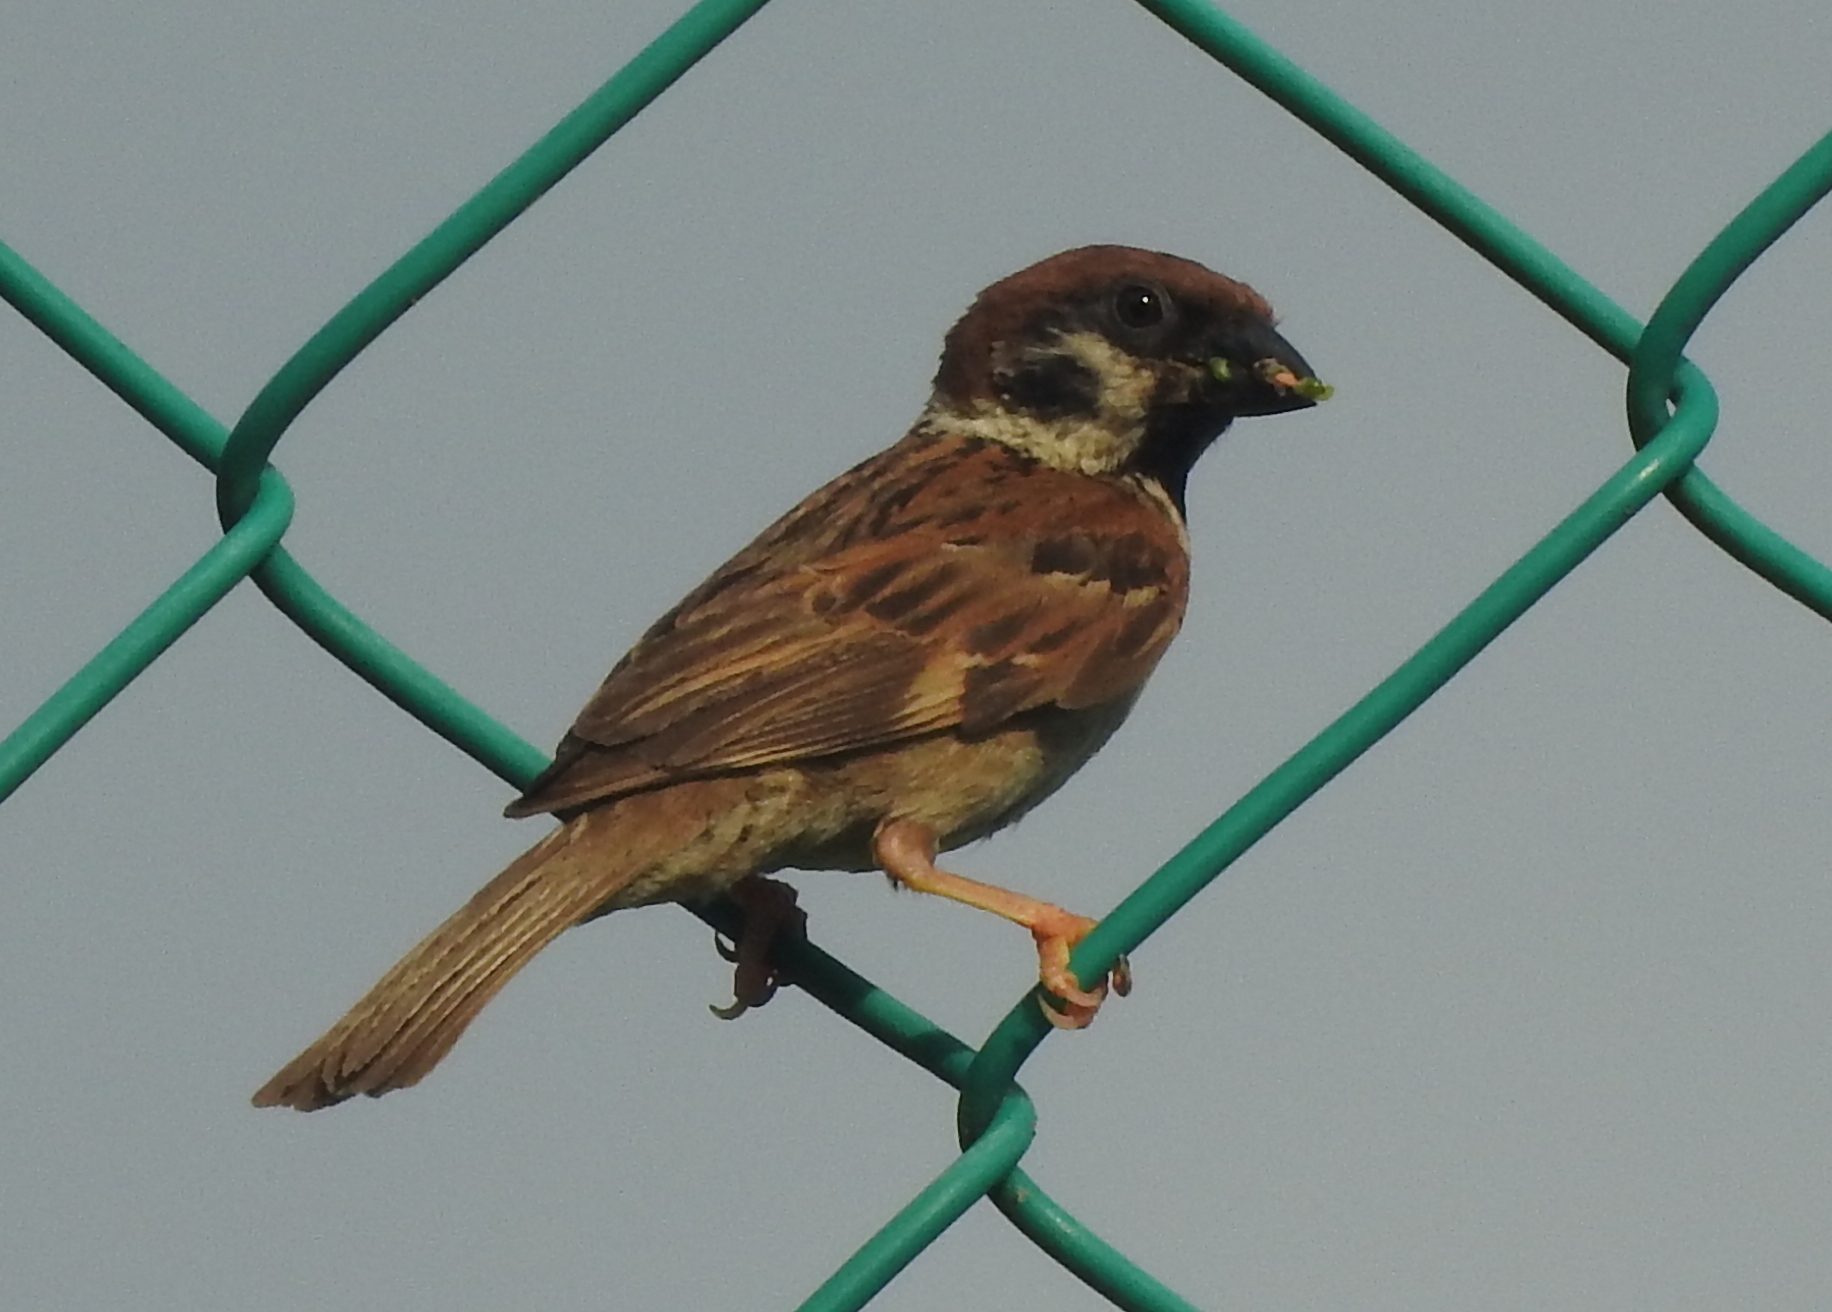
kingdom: Animalia
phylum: Chordata
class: Aves
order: Passeriformes
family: Passeridae
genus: Passer
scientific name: Passer montanus
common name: Eurasian tree sparrow
